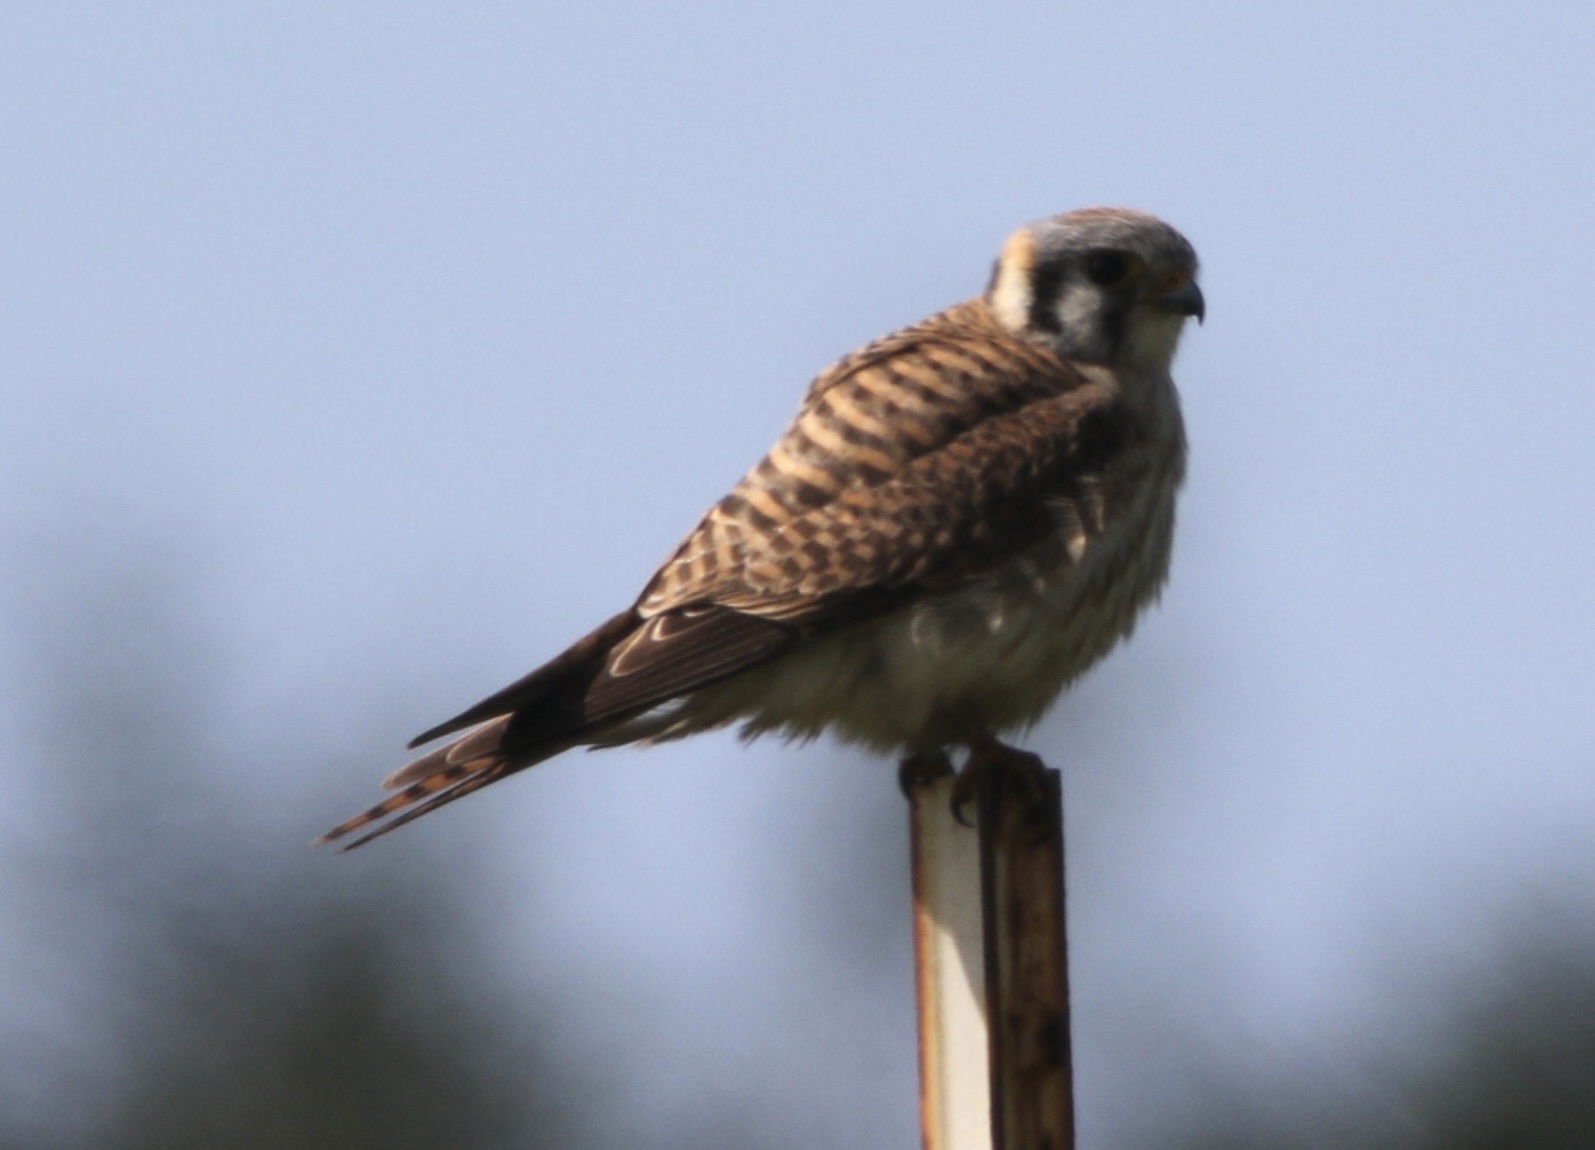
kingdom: Animalia
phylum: Chordata
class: Aves
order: Falconiformes
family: Falconidae
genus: Falco
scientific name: Falco sparverius
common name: American kestrel
